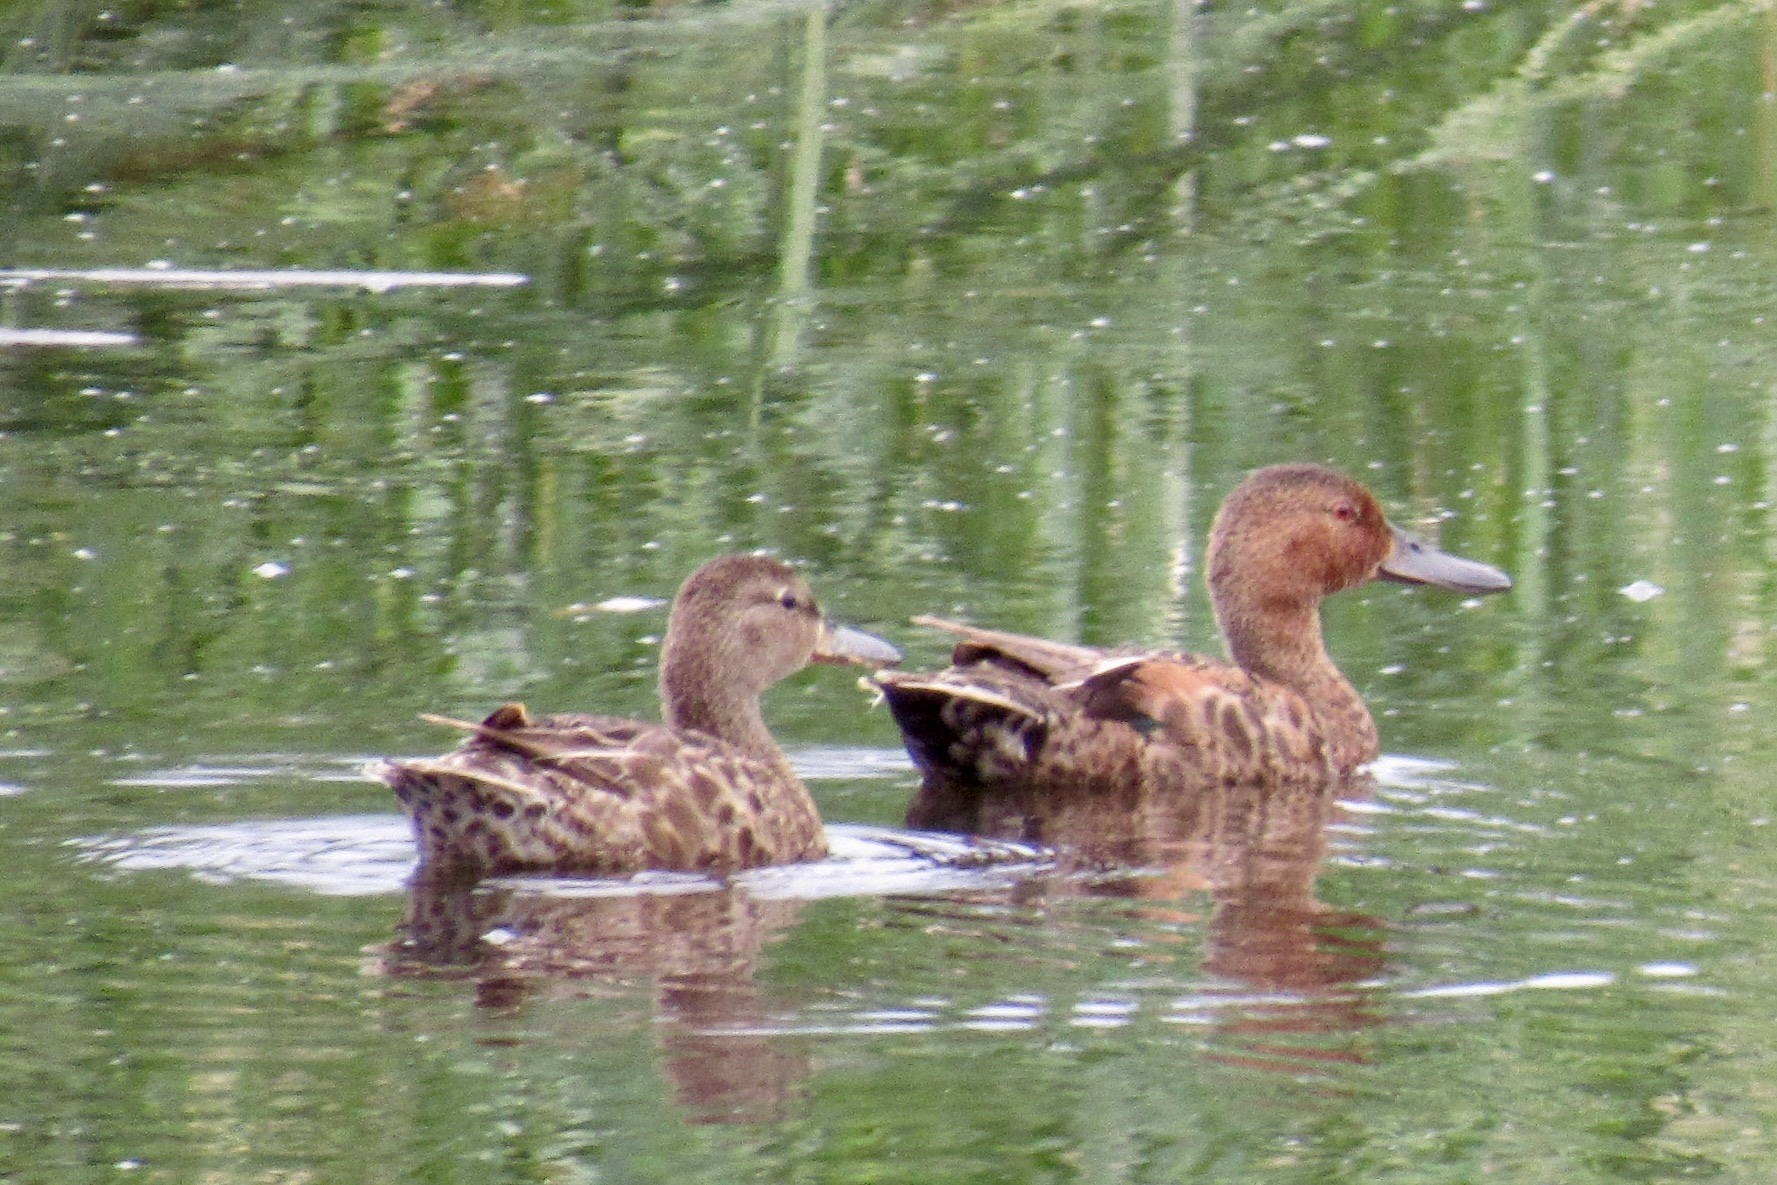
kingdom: Animalia
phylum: Chordata
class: Aves
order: Anseriformes
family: Anatidae
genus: Spatula
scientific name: Spatula cyanoptera
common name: Cinnamon teal
